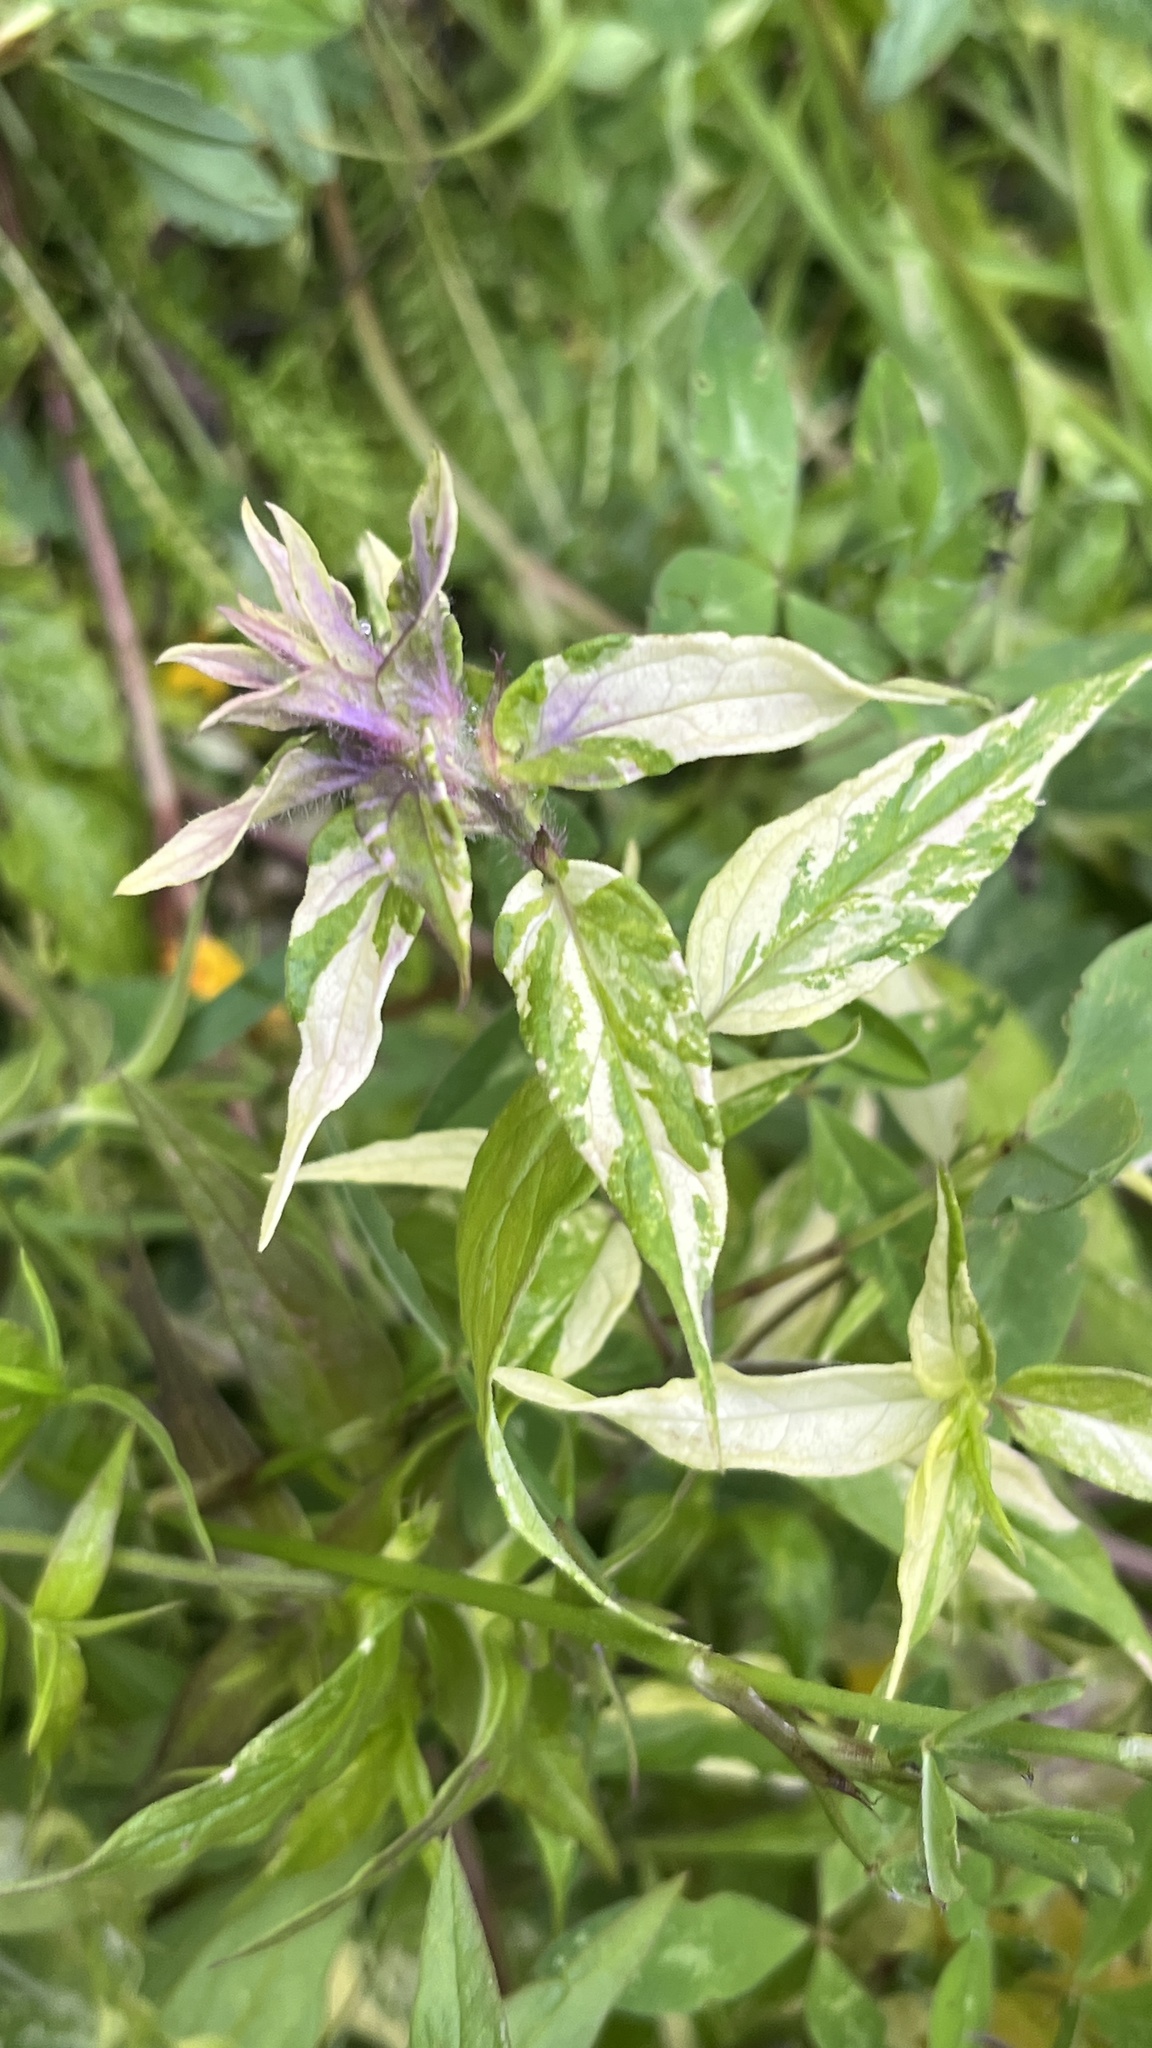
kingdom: Plantae
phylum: Tracheophyta
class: Magnoliopsida
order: Lamiales
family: Orobanchaceae
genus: Melampyrum
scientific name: Melampyrum nemorosum
